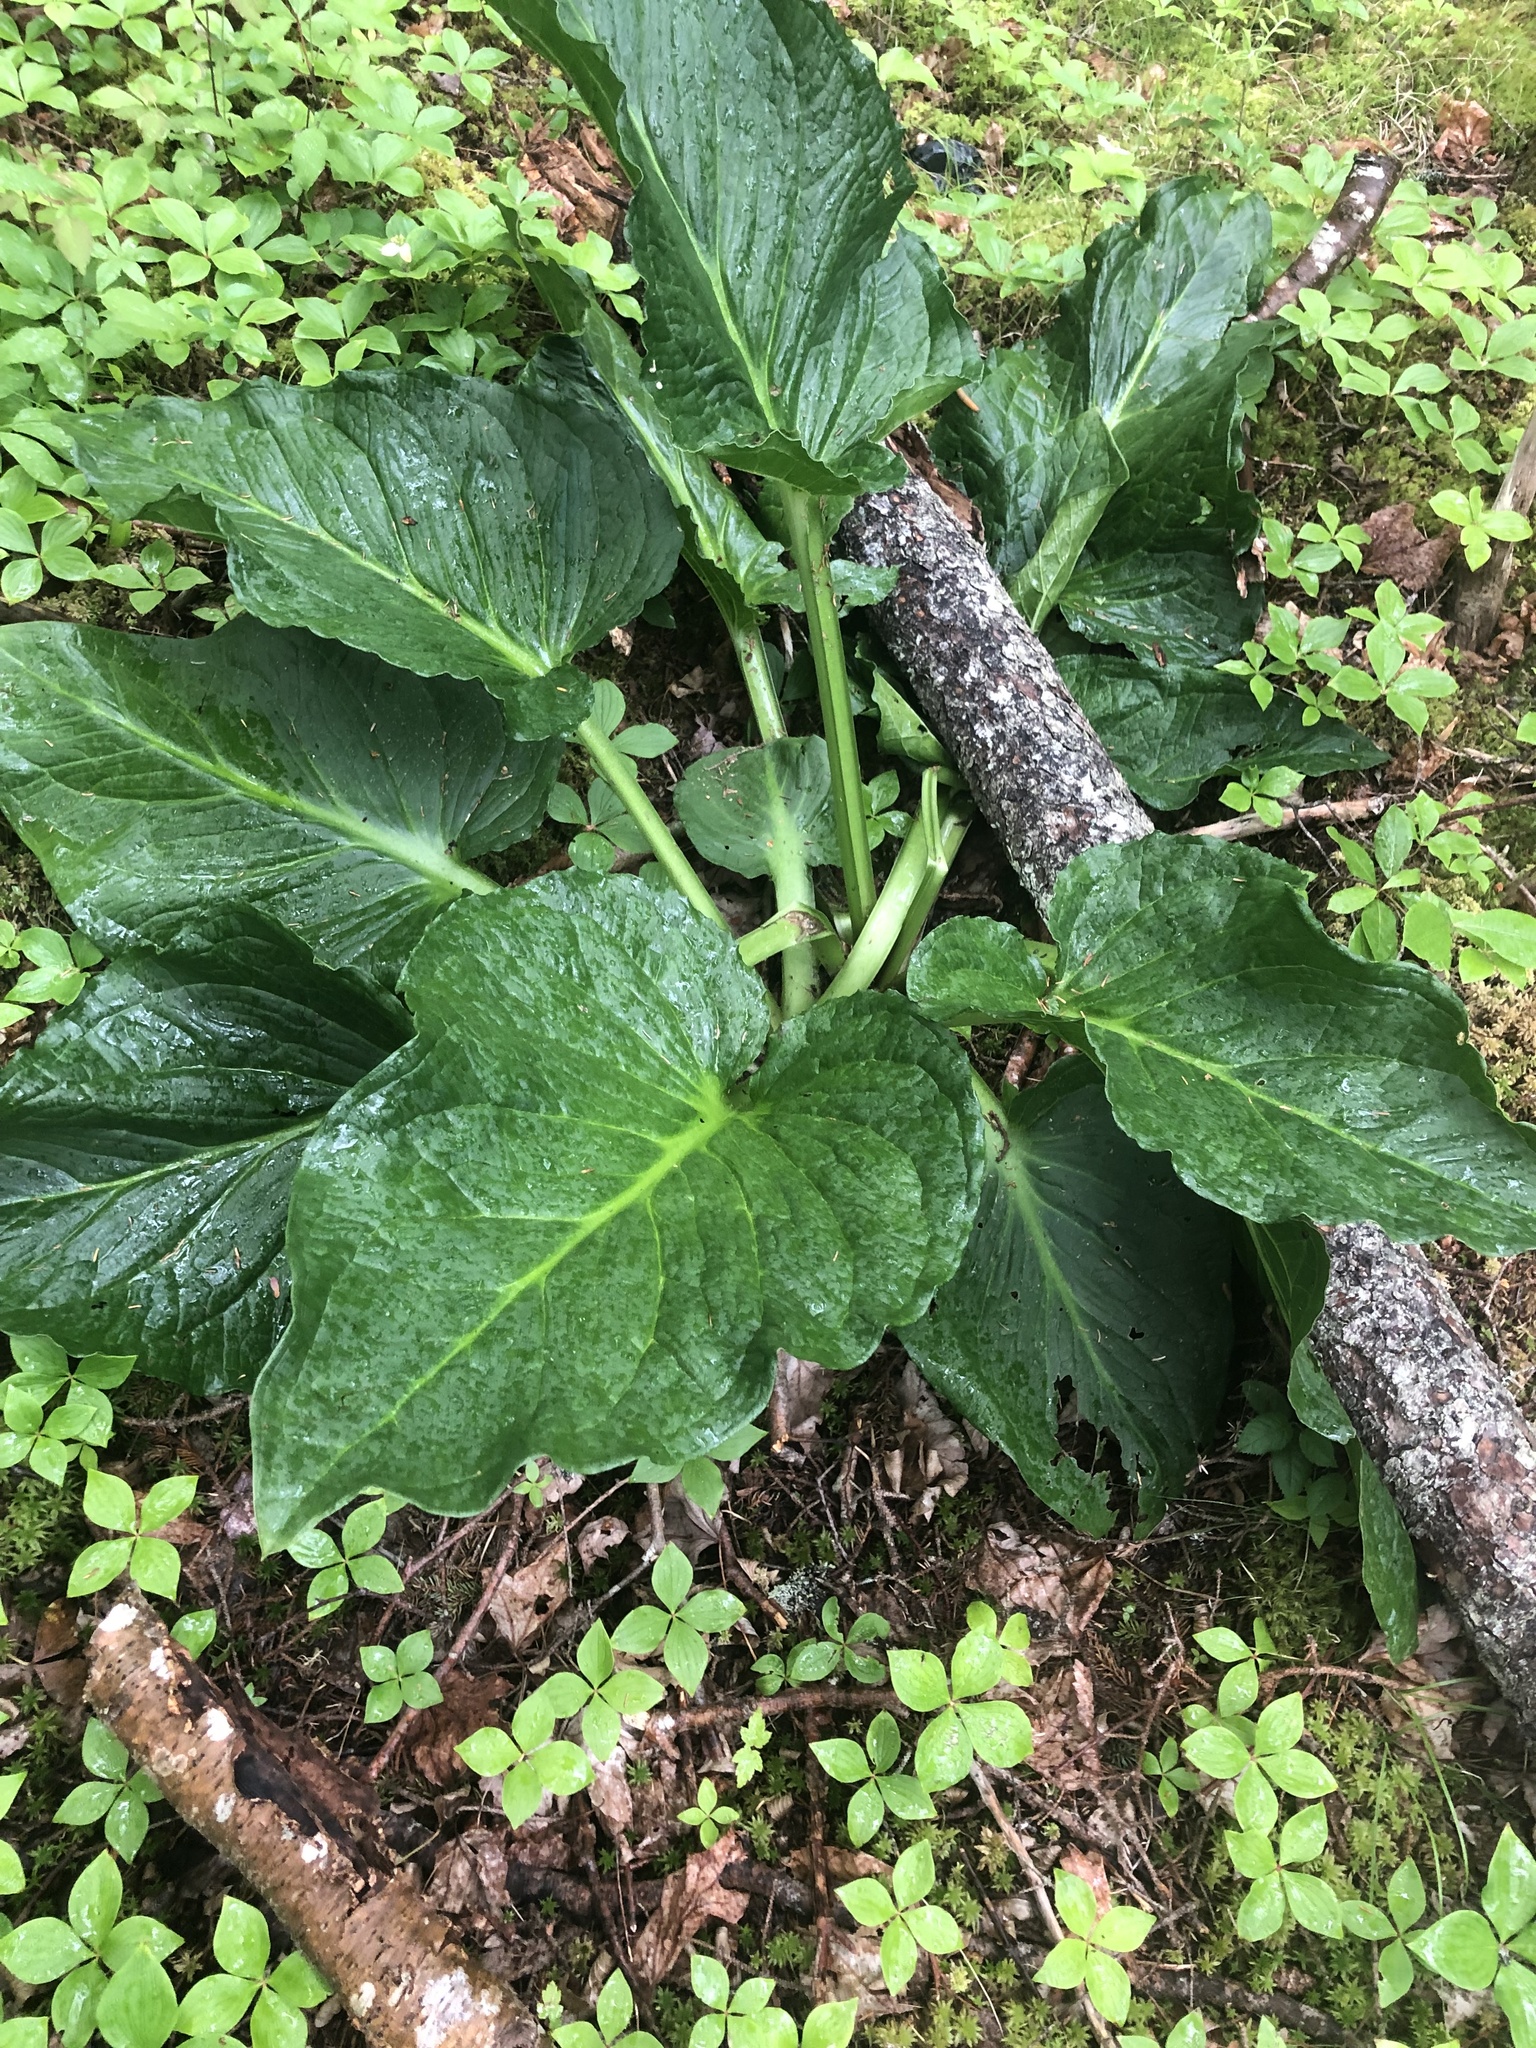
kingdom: Plantae
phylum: Tracheophyta
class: Liliopsida
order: Alismatales
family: Araceae
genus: Symplocarpus
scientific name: Symplocarpus foetidus
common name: Eastern skunk cabbage
